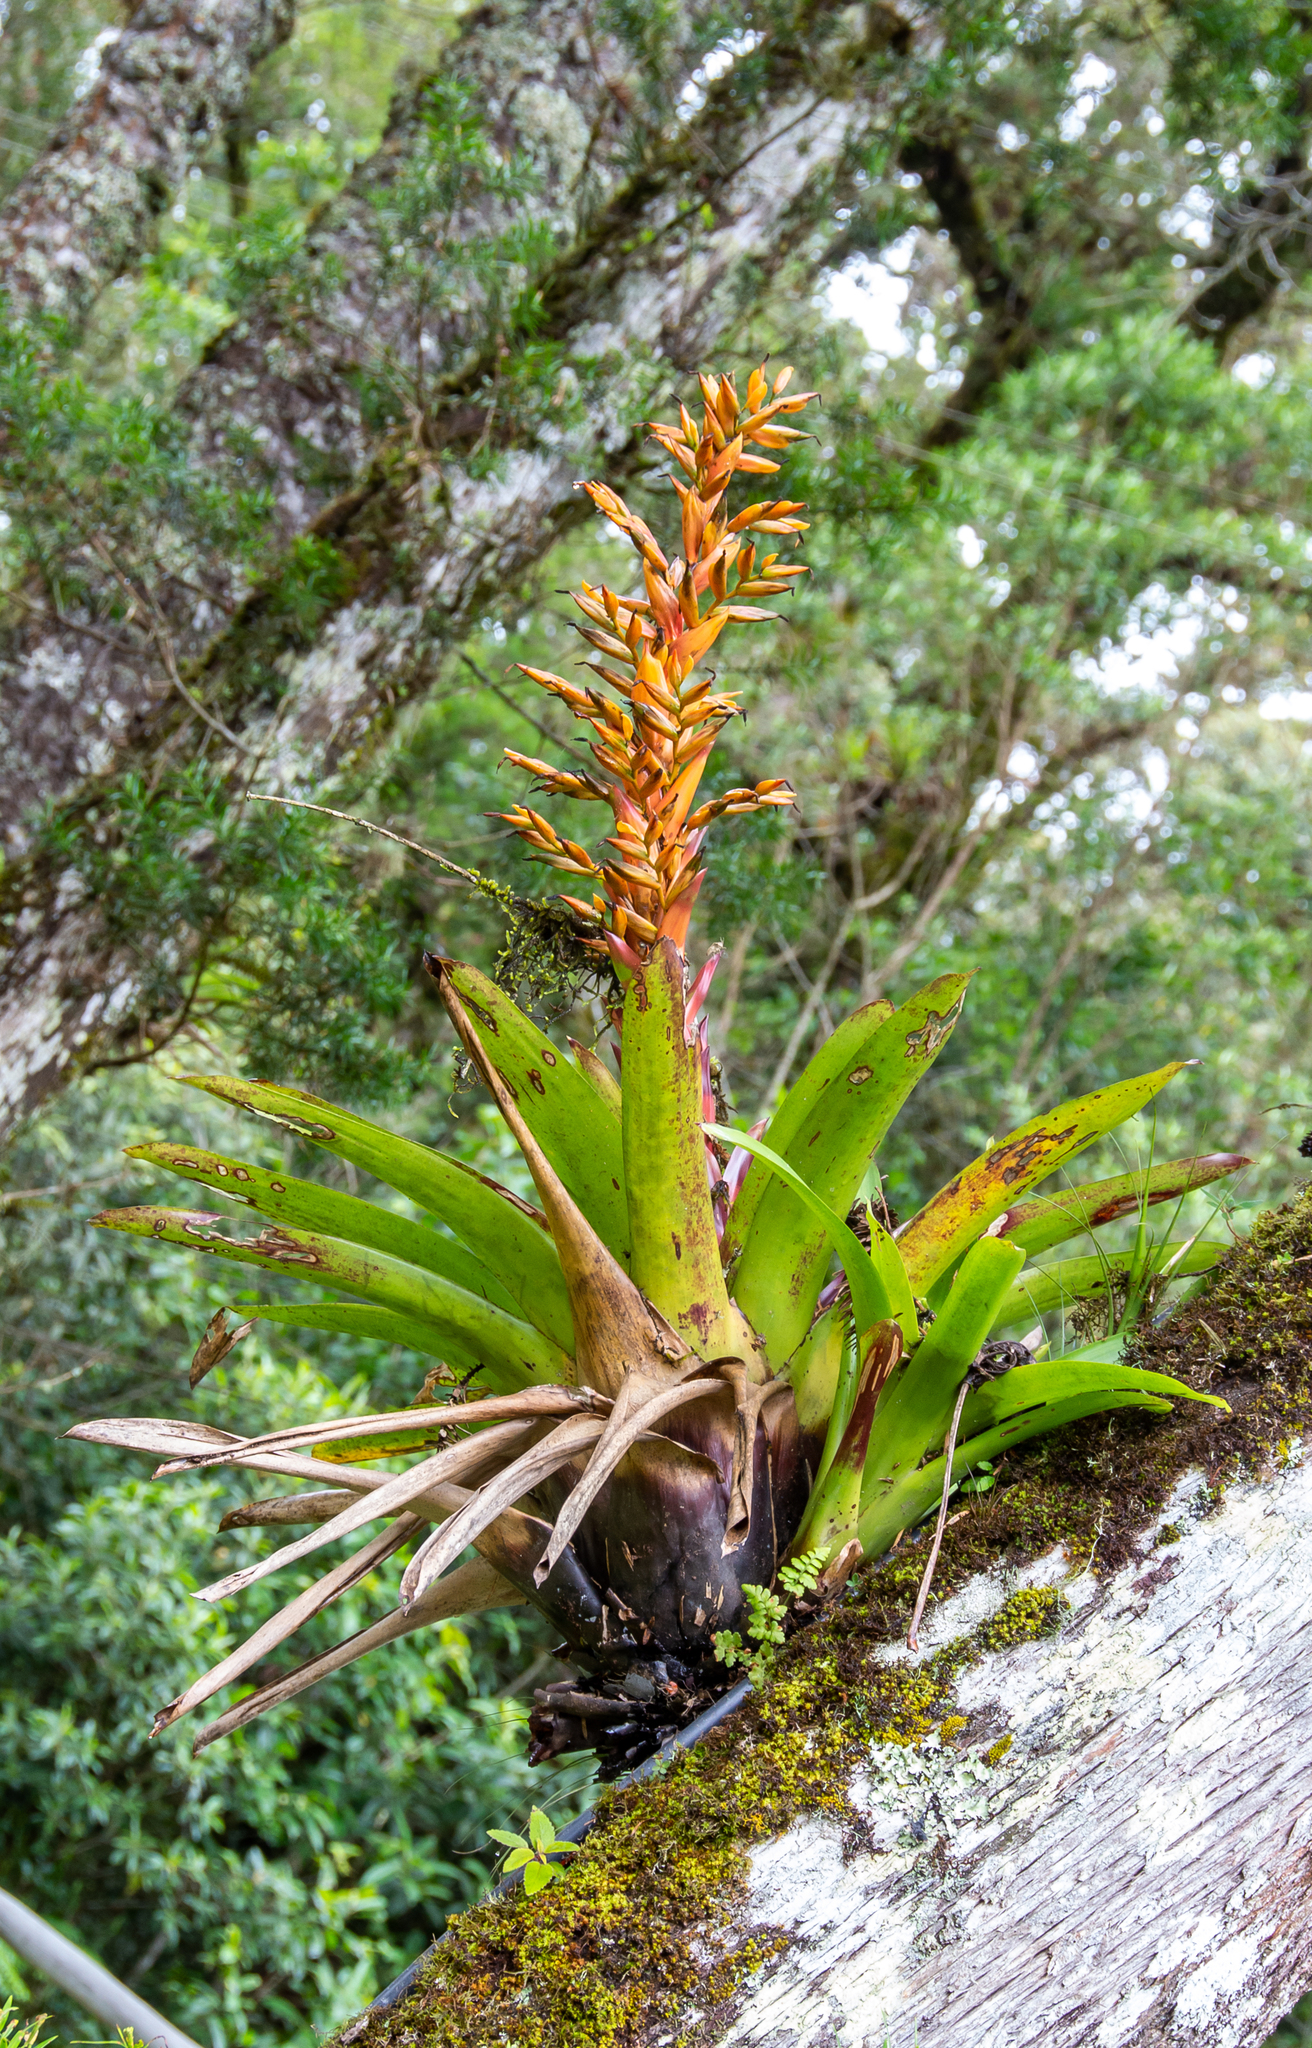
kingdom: Plantae
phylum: Tracheophyta
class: Liliopsida
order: Poales
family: Bromeliaceae
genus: Vriesea
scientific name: Vriesea sceptrum
